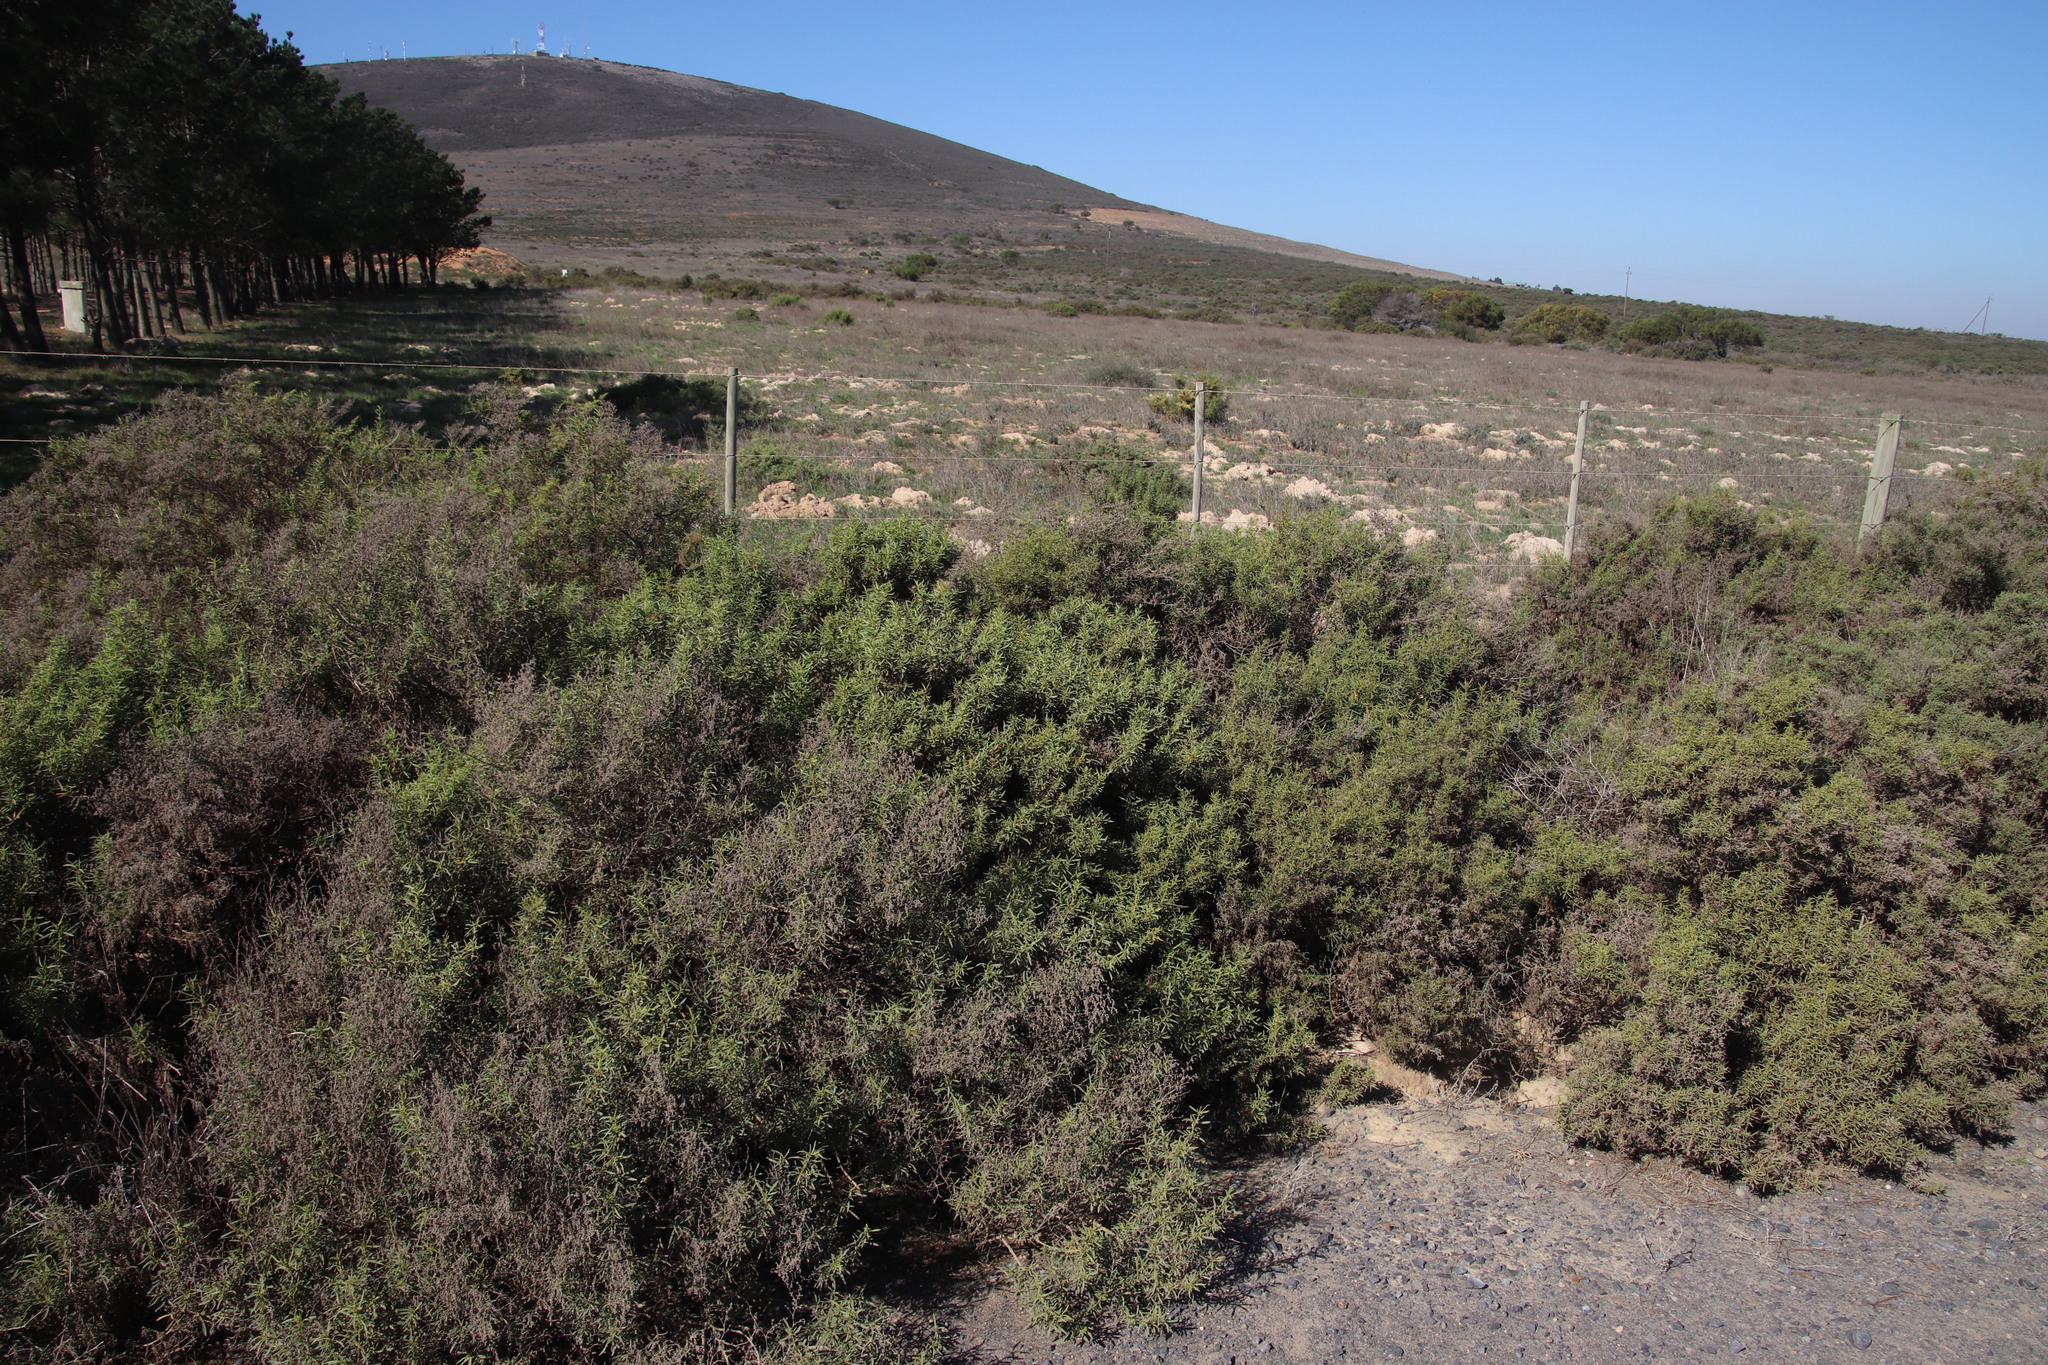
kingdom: Plantae
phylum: Tracheophyta
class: Magnoliopsida
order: Caryophyllales
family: Aizoaceae
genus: Aizoon
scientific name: Aizoon africanum
